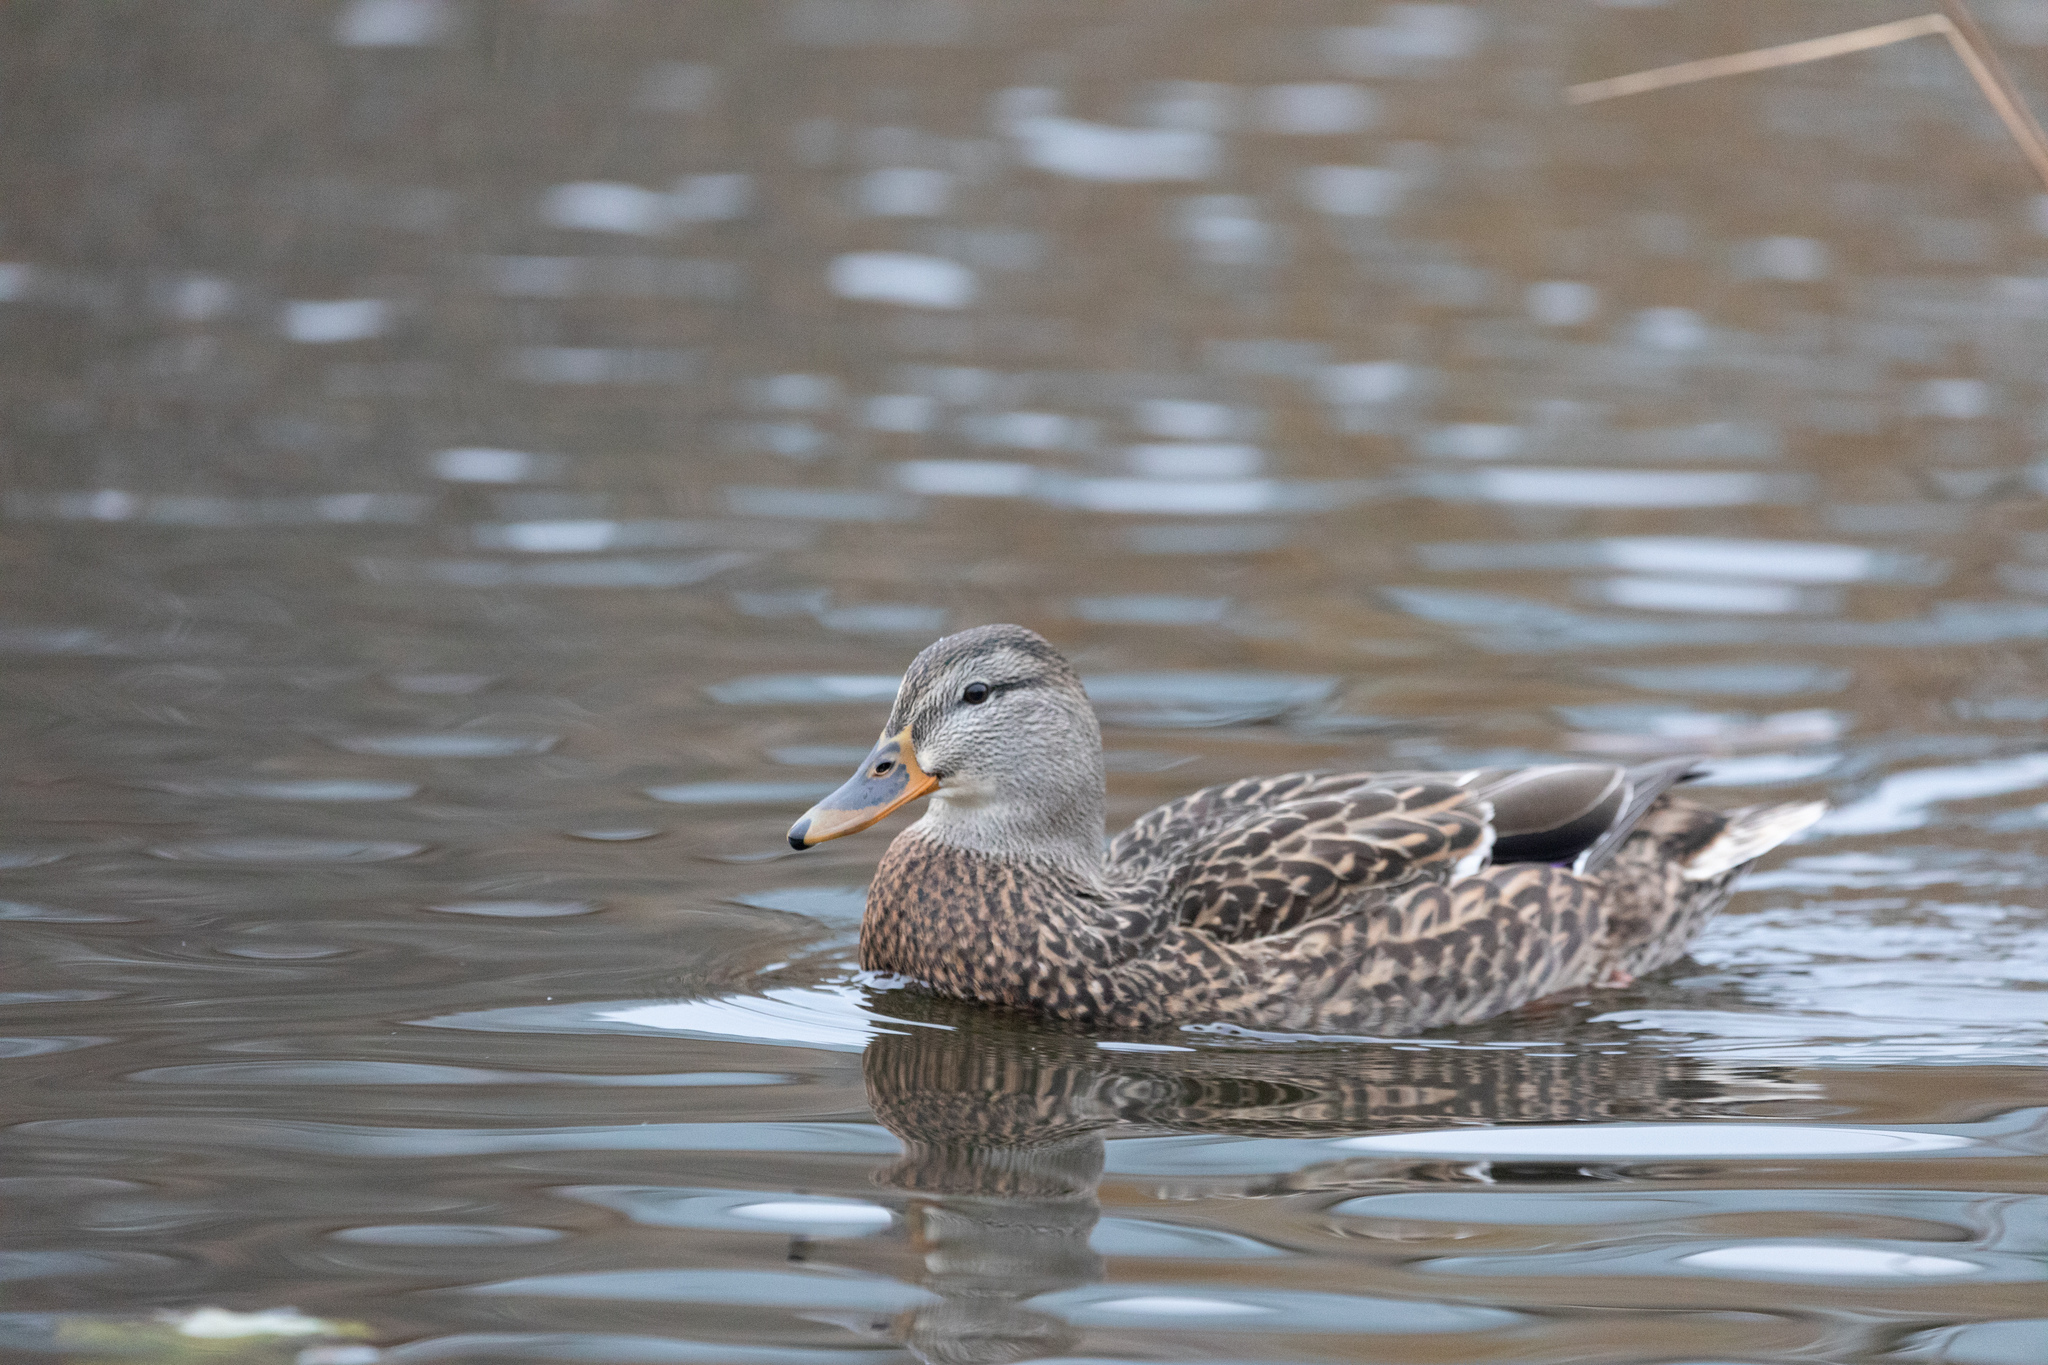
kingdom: Animalia
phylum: Chordata
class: Aves
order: Anseriformes
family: Anatidae
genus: Anas
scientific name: Anas platyrhynchos
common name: Mallard
